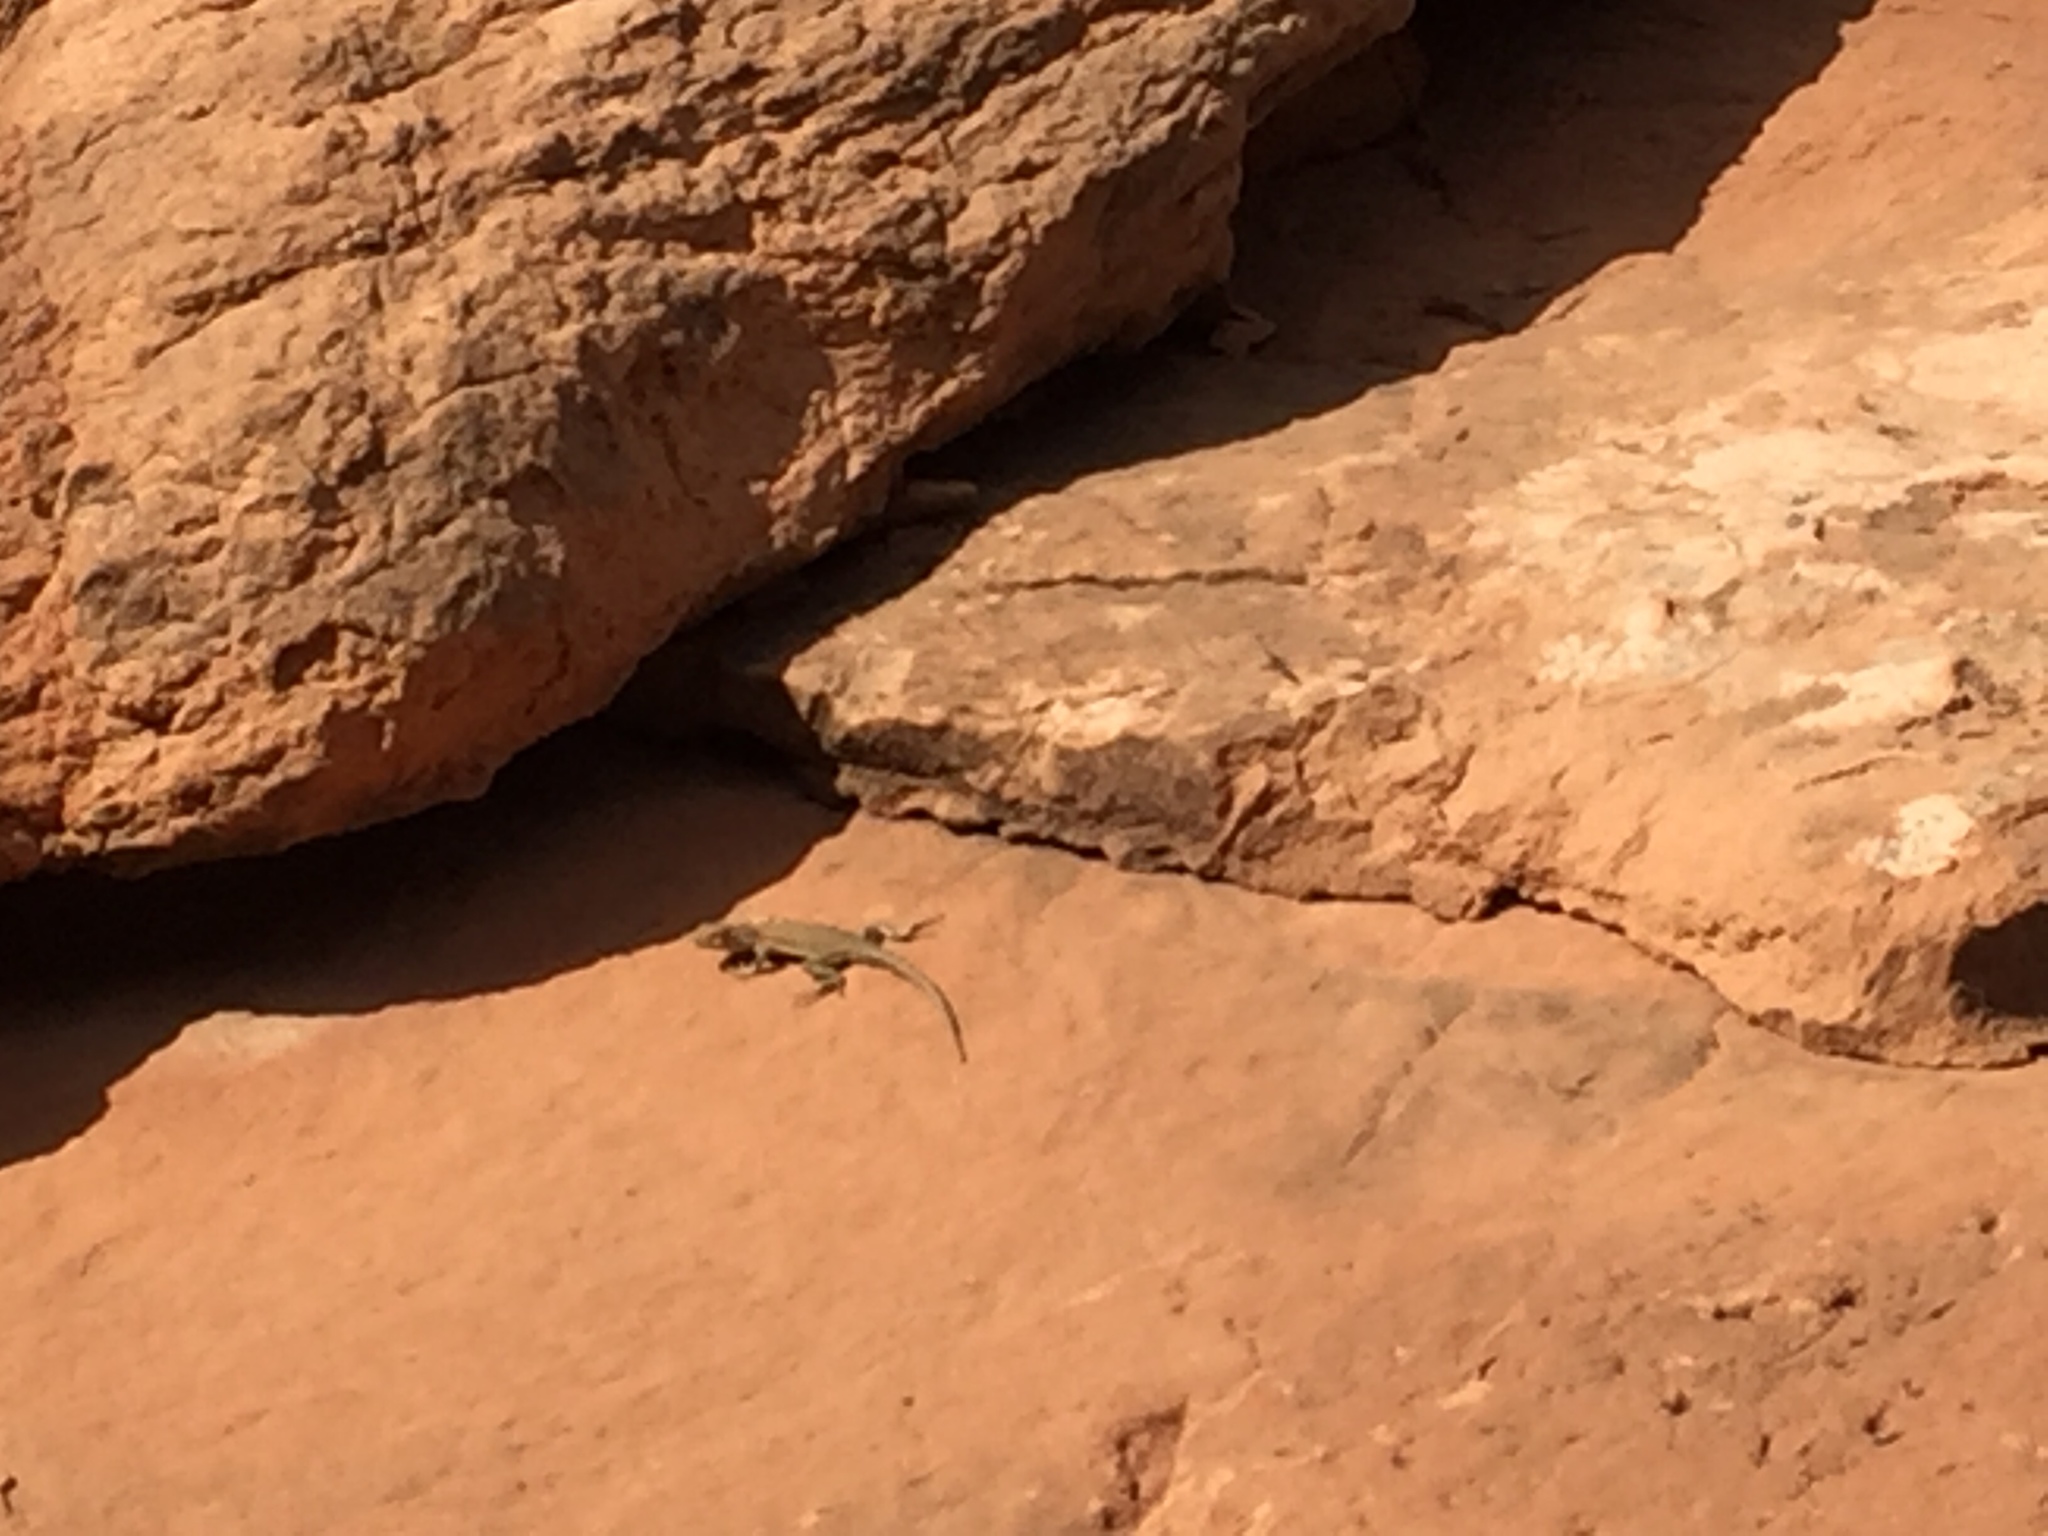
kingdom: Animalia
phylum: Chordata
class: Squamata
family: Phrynosomatidae
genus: Uta
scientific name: Uta stansburiana
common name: Side-blotched lizard
